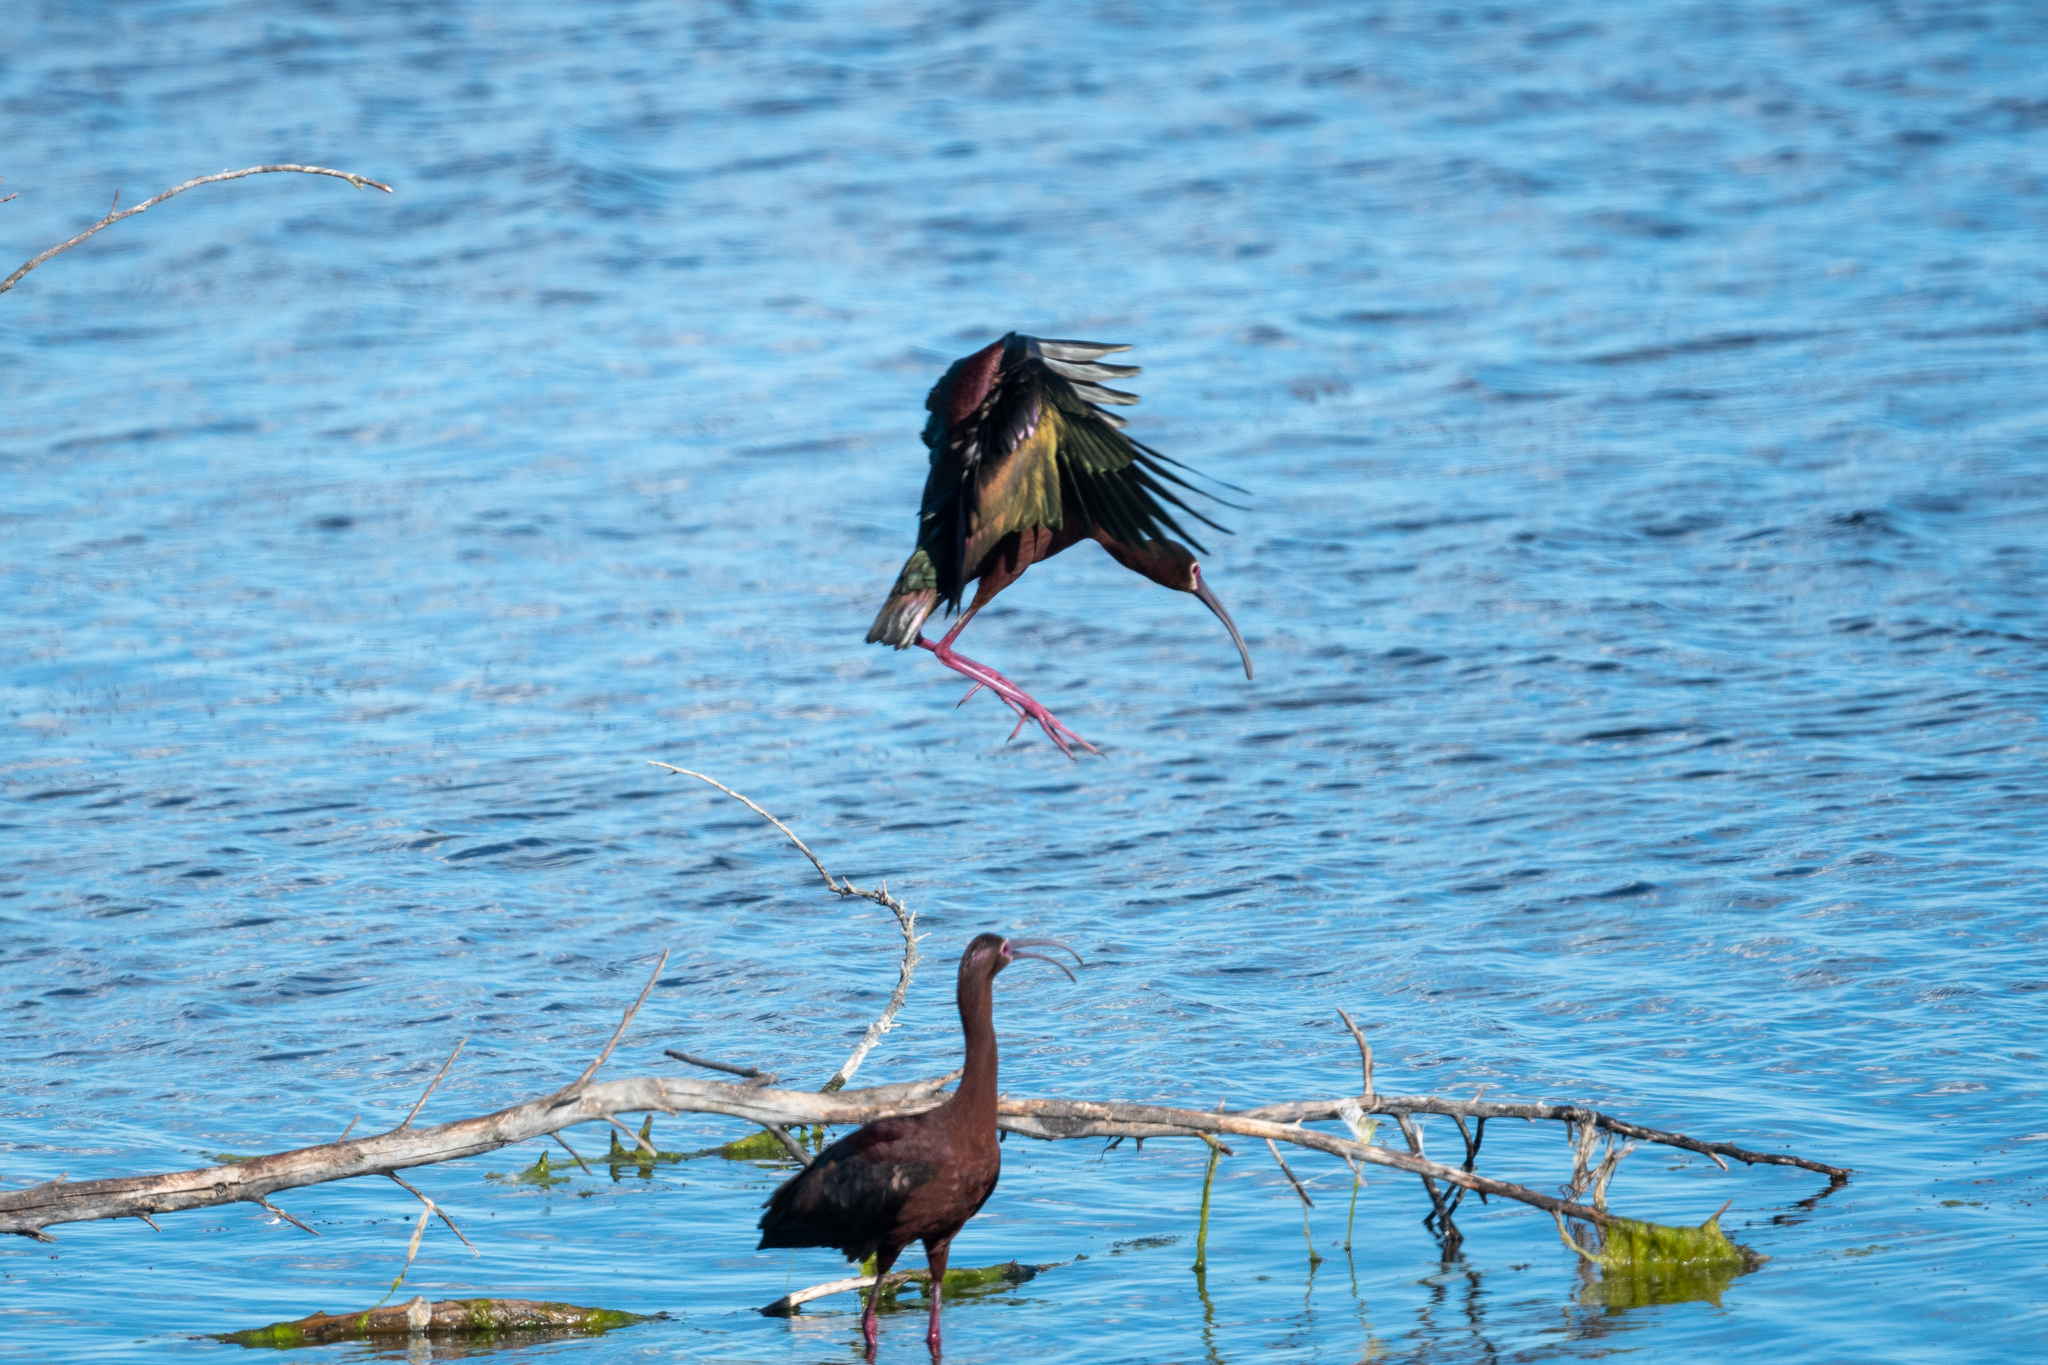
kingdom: Animalia
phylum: Chordata
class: Aves
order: Pelecaniformes
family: Threskiornithidae
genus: Plegadis
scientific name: Plegadis chihi
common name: White-faced ibis
